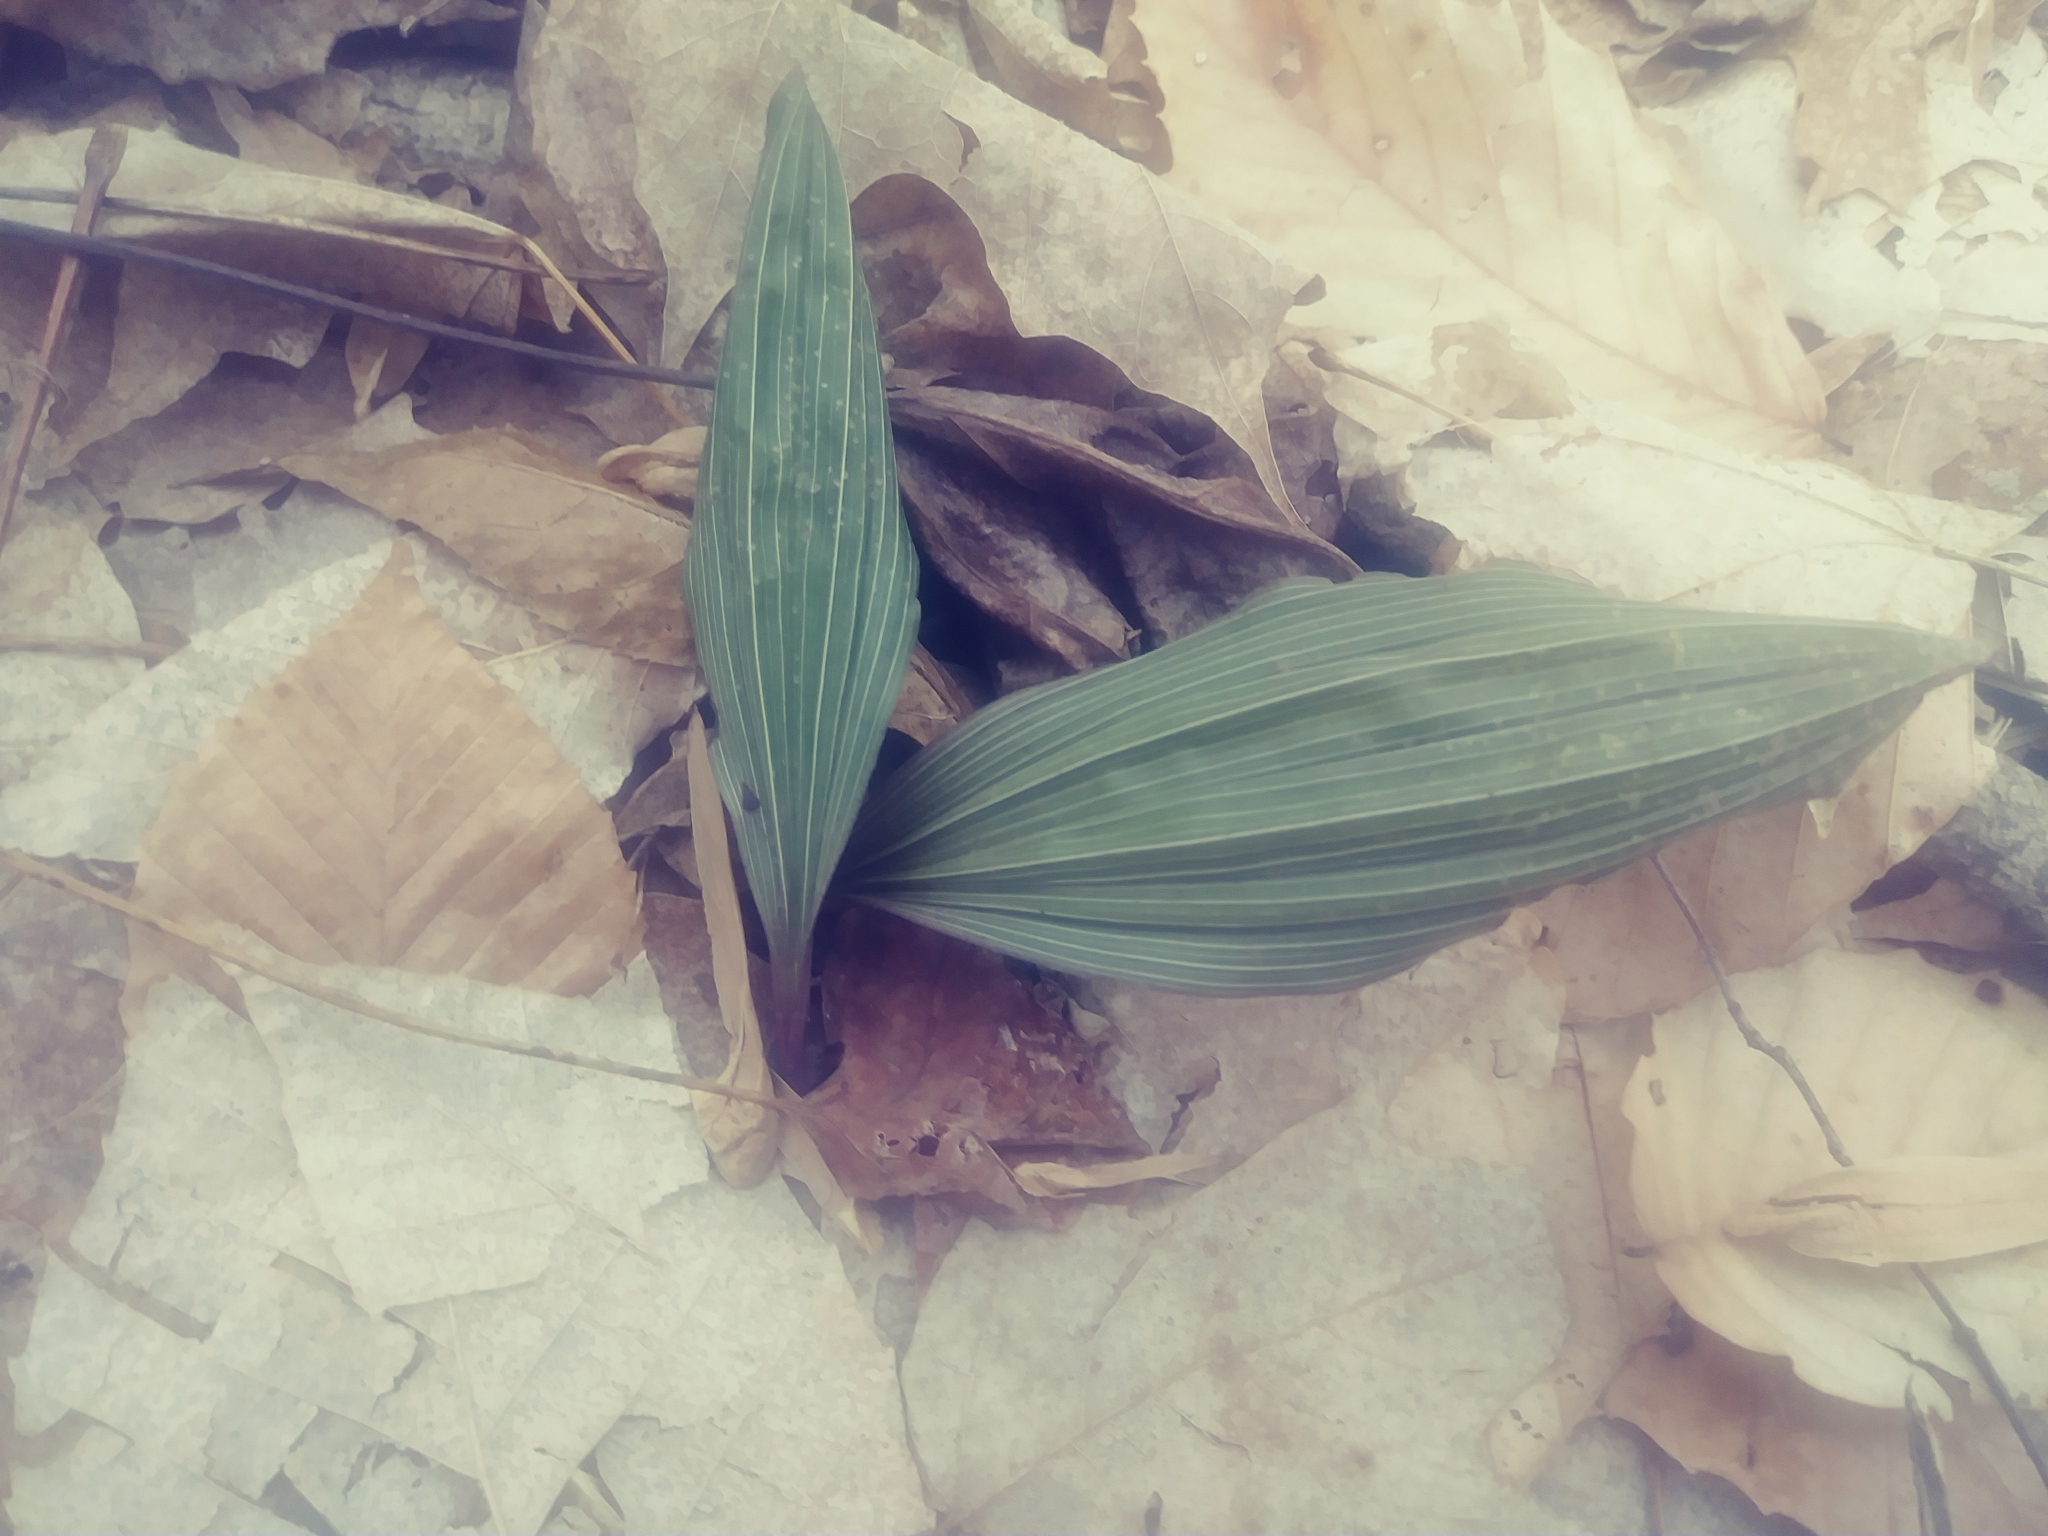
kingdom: Plantae
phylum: Tracheophyta
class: Liliopsida
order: Asparagales
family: Orchidaceae
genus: Aplectrum
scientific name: Aplectrum hyemale
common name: Adam-and-eve
